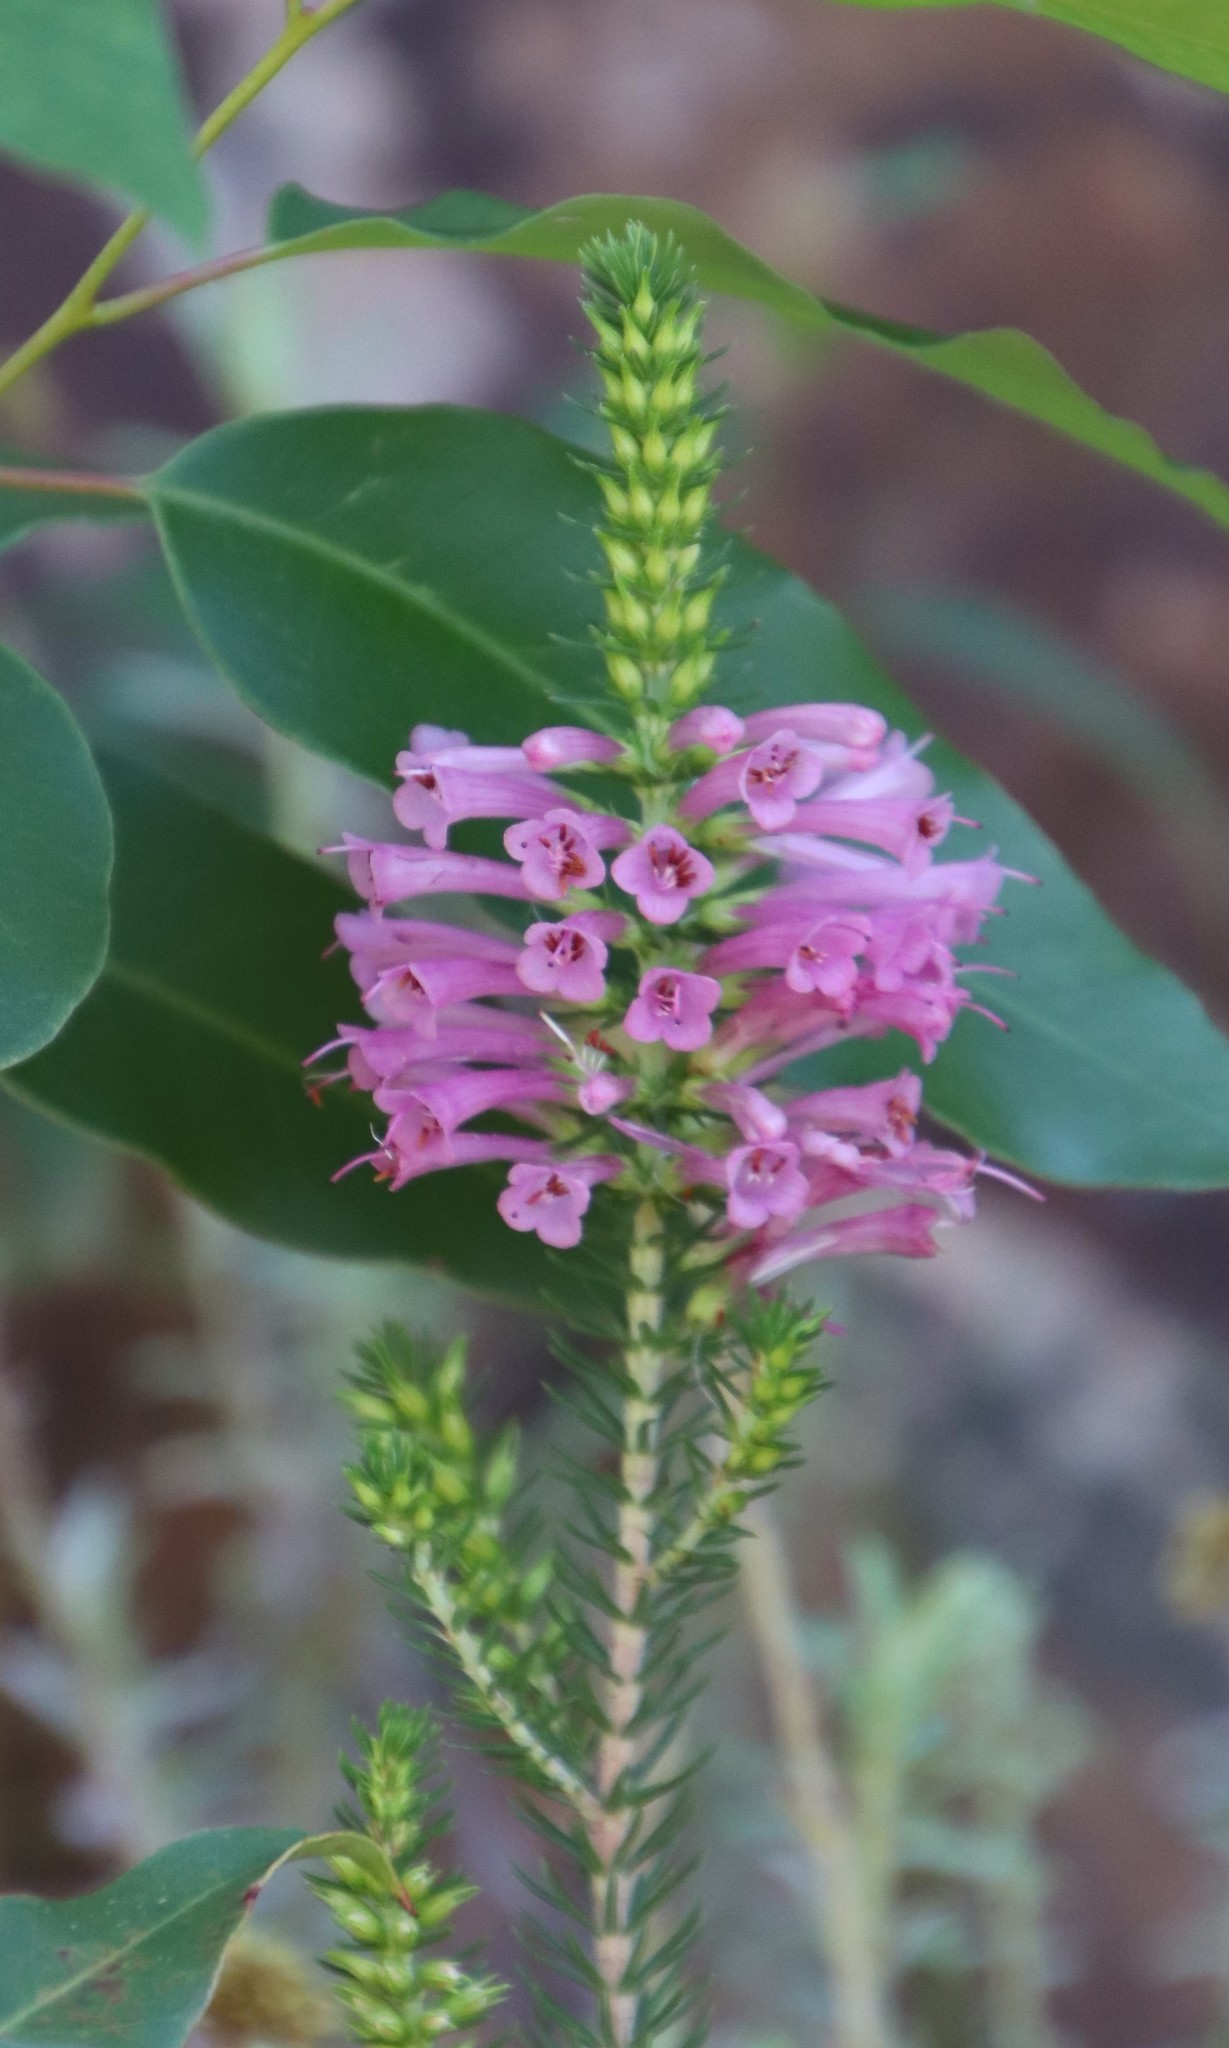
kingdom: Plantae
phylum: Tracheophyta
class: Magnoliopsida
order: Ericales
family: Ericaceae
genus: Erica
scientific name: Erica abietina
